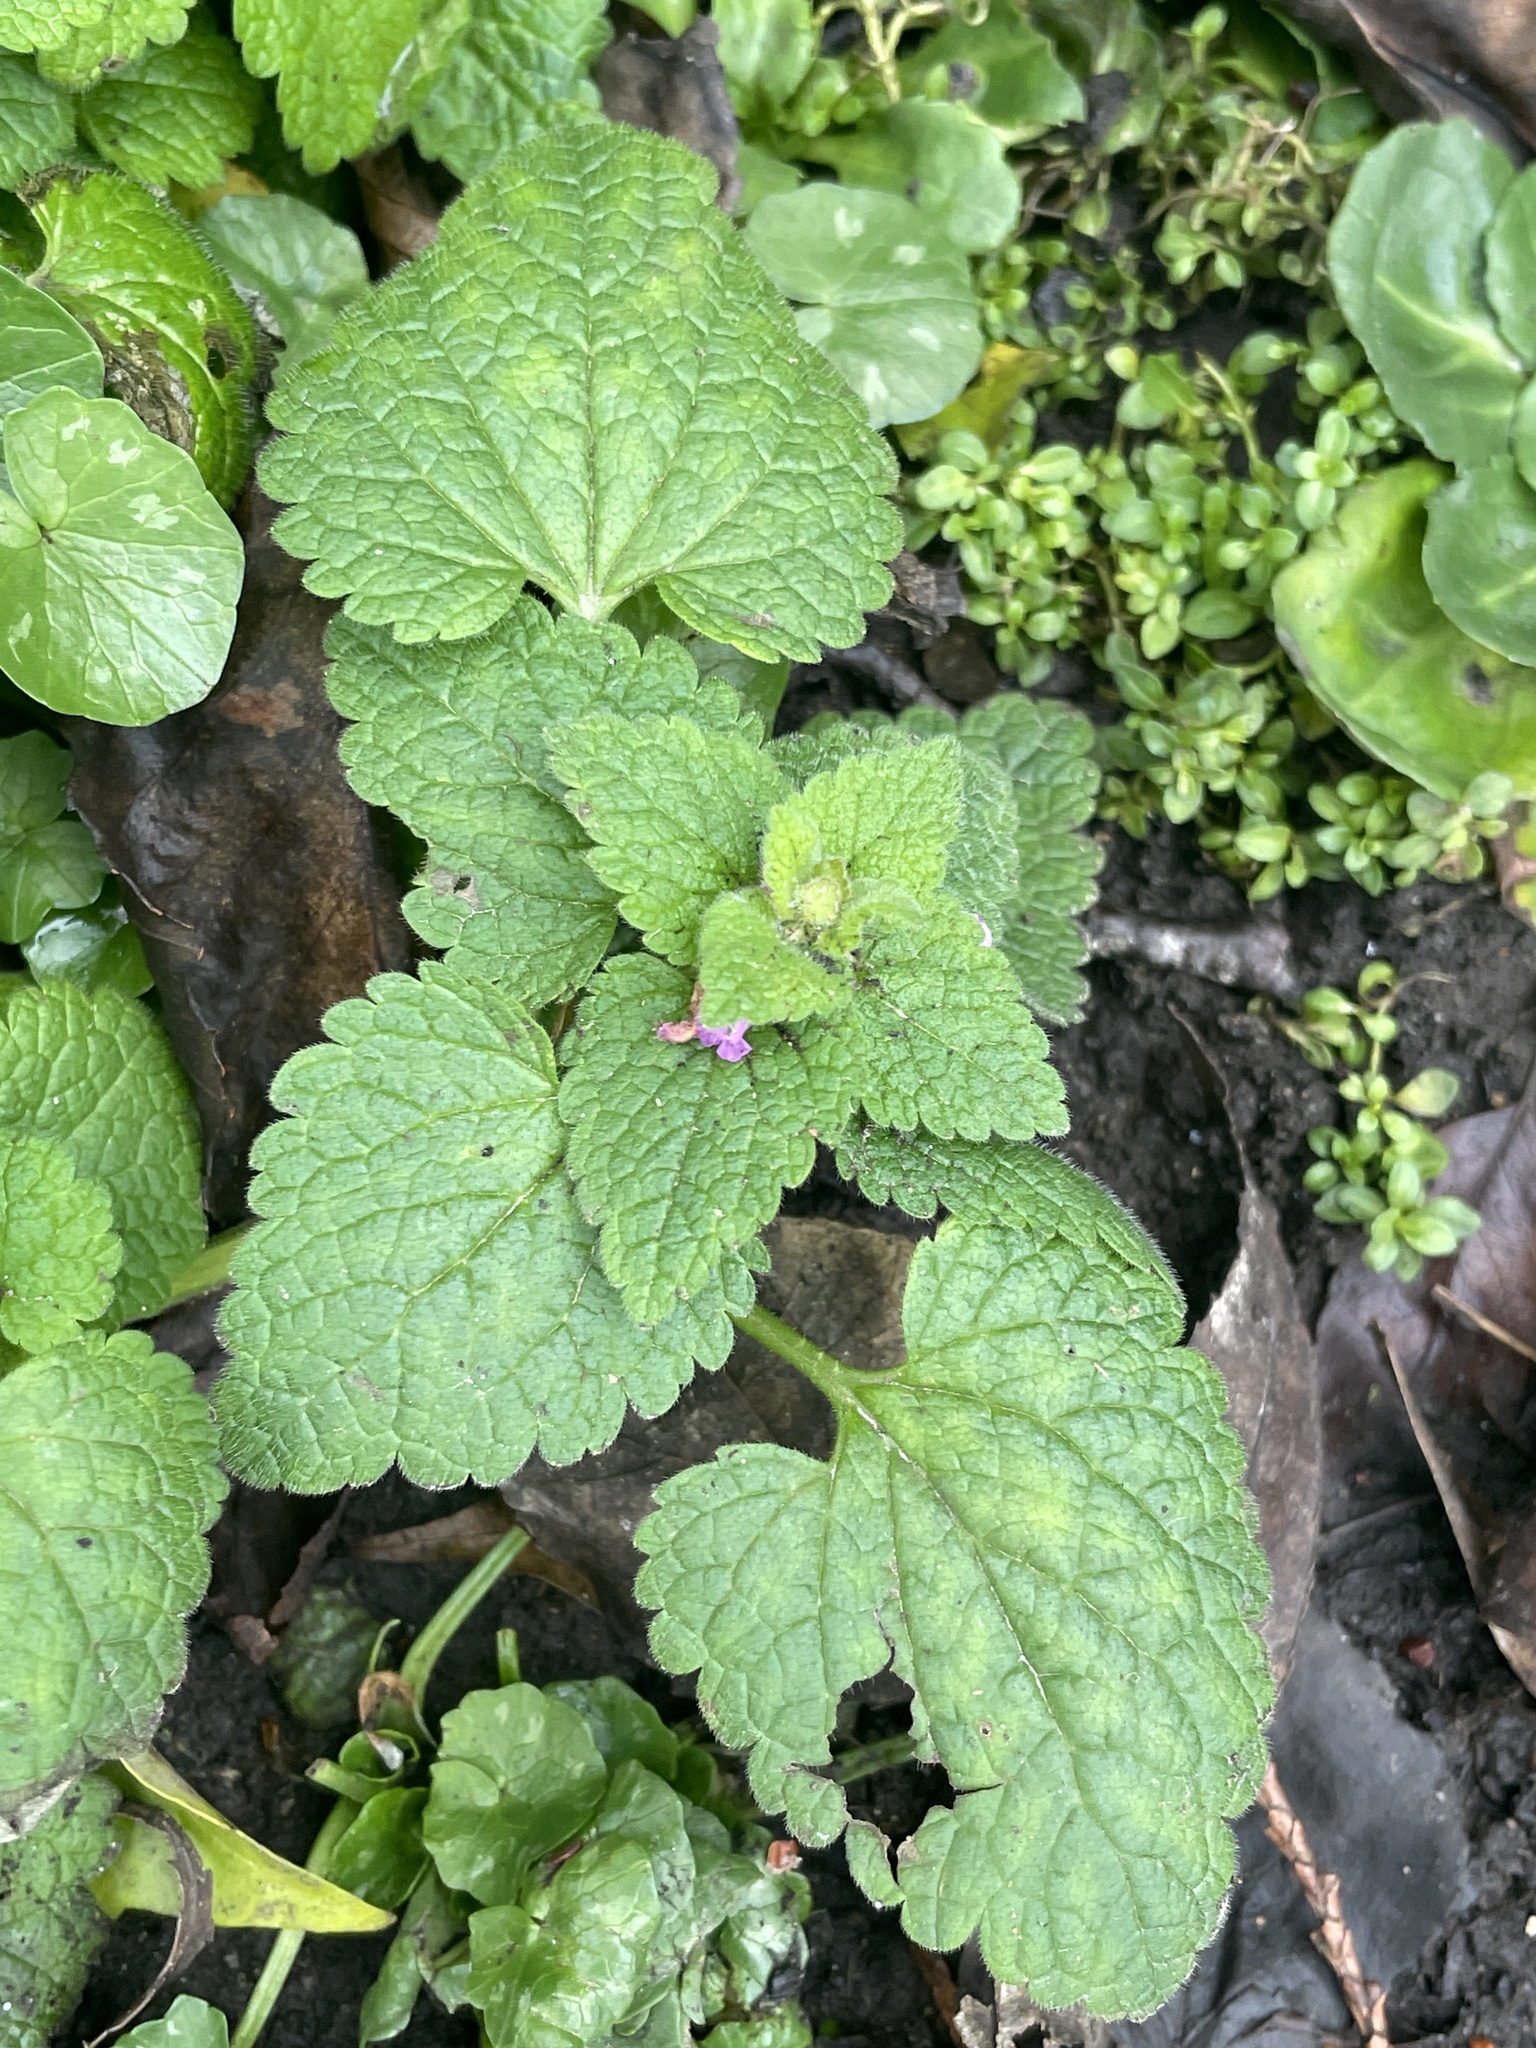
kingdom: Plantae
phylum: Tracheophyta
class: Magnoliopsida
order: Lamiales
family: Lamiaceae
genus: Lamium
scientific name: Lamium purpureum
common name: Red dead-nettle
